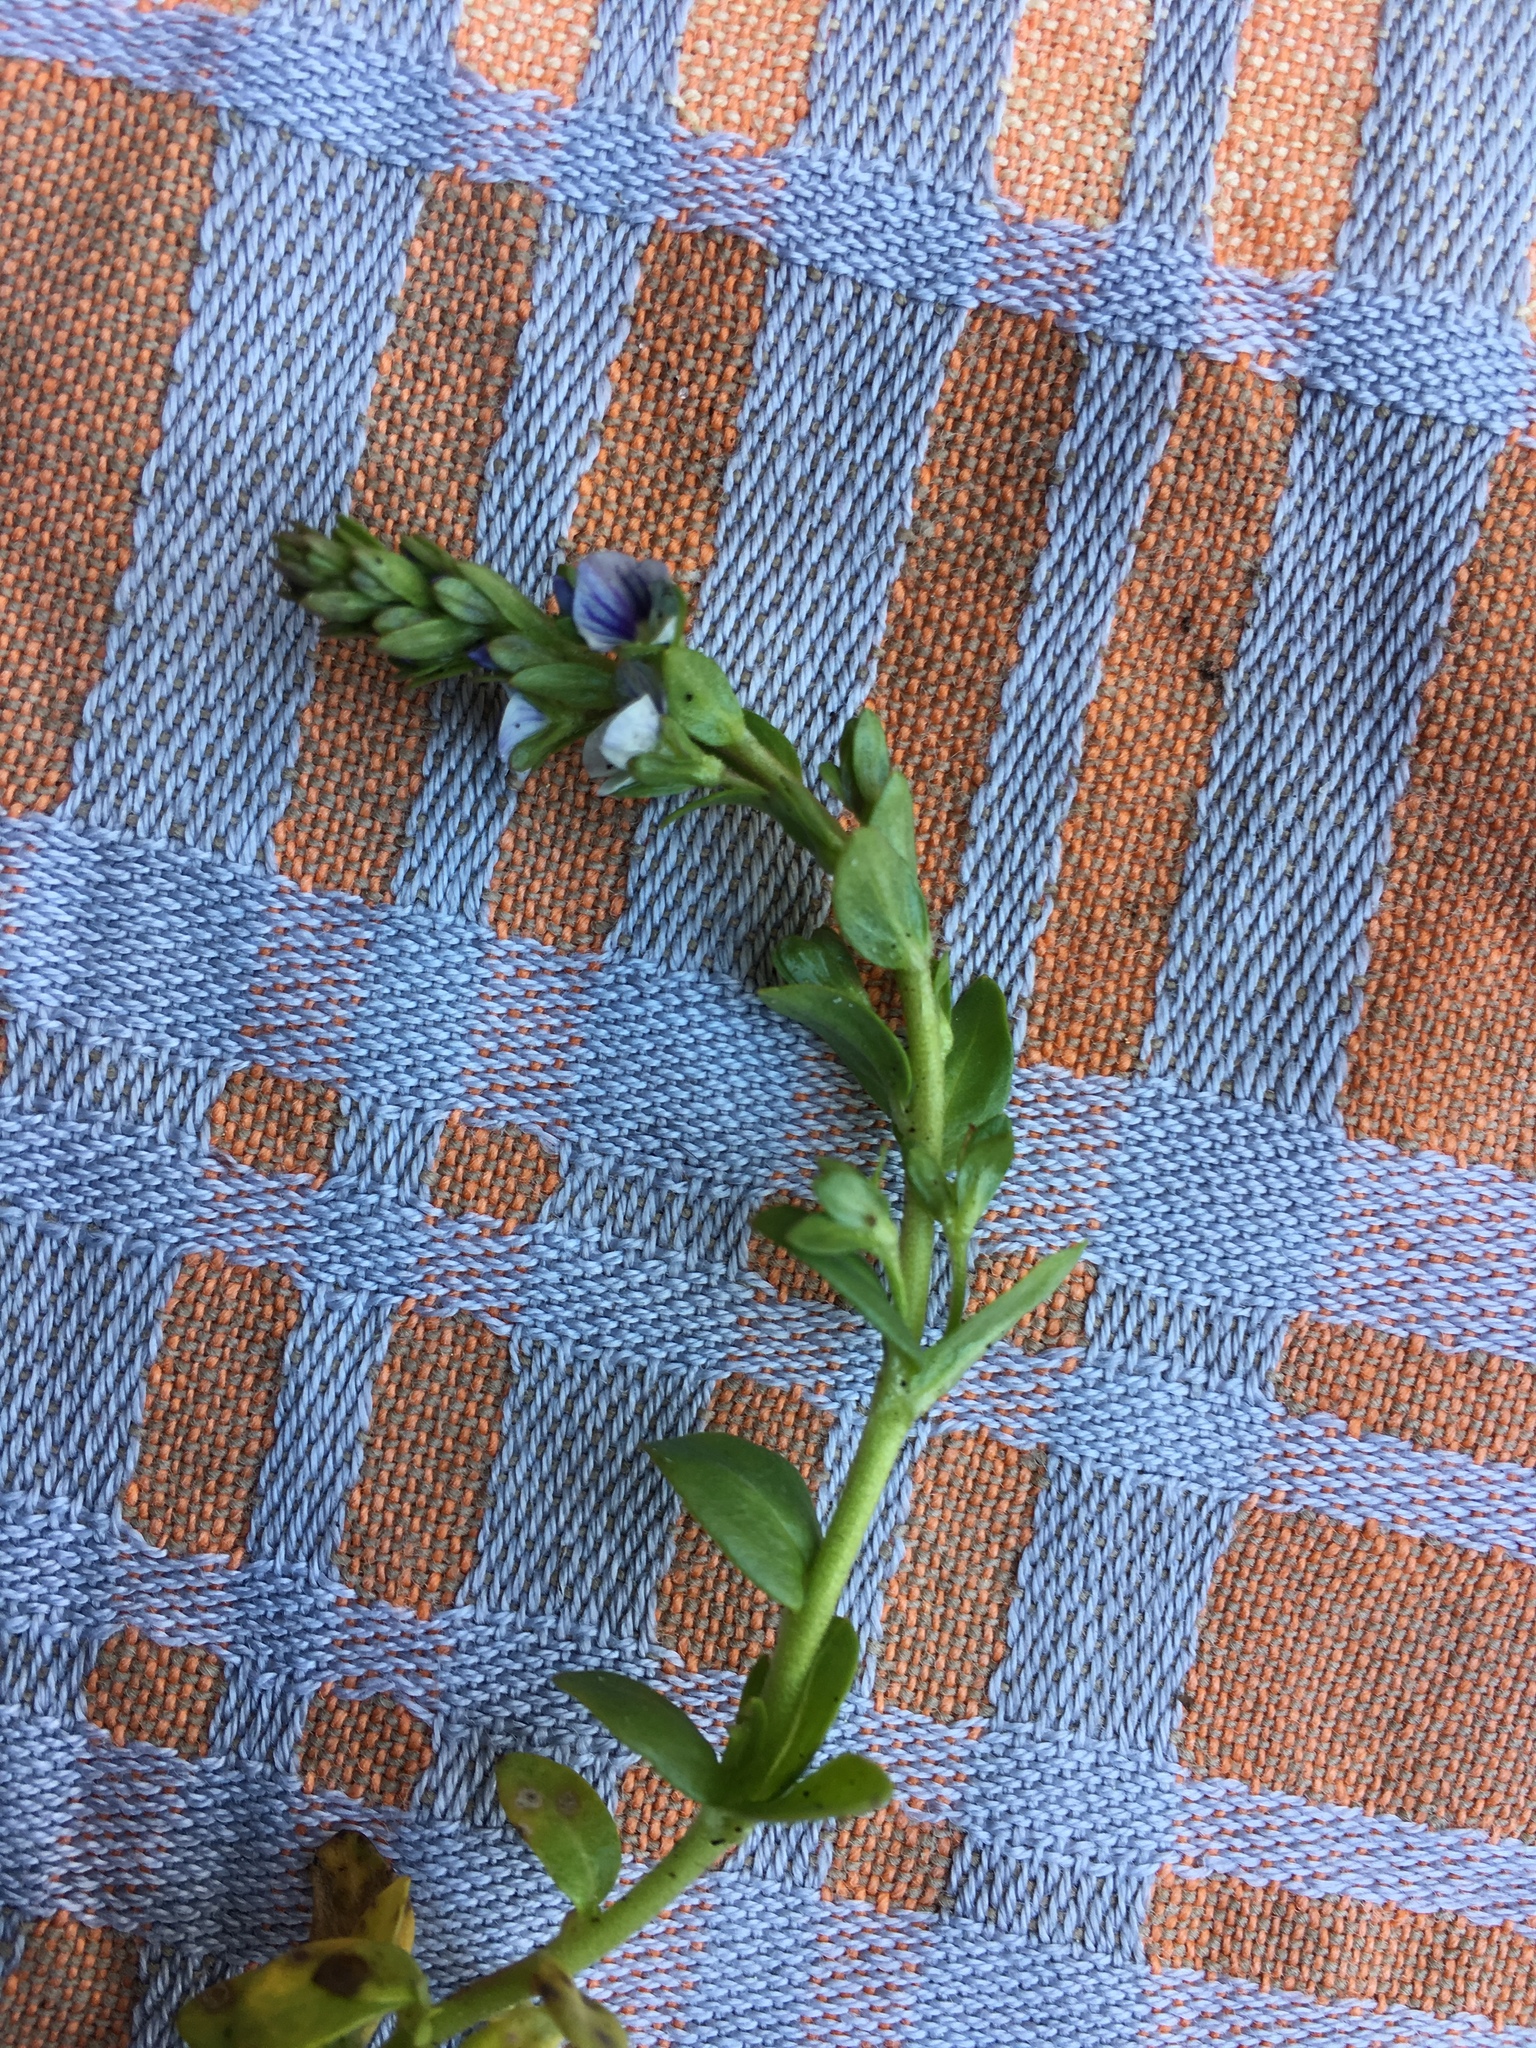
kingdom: Plantae
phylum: Tracheophyta
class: Magnoliopsida
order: Lamiales
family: Plantaginaceae
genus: Veronica
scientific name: Veronica serpyllifolia
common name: Thyme-leaved speedwell
